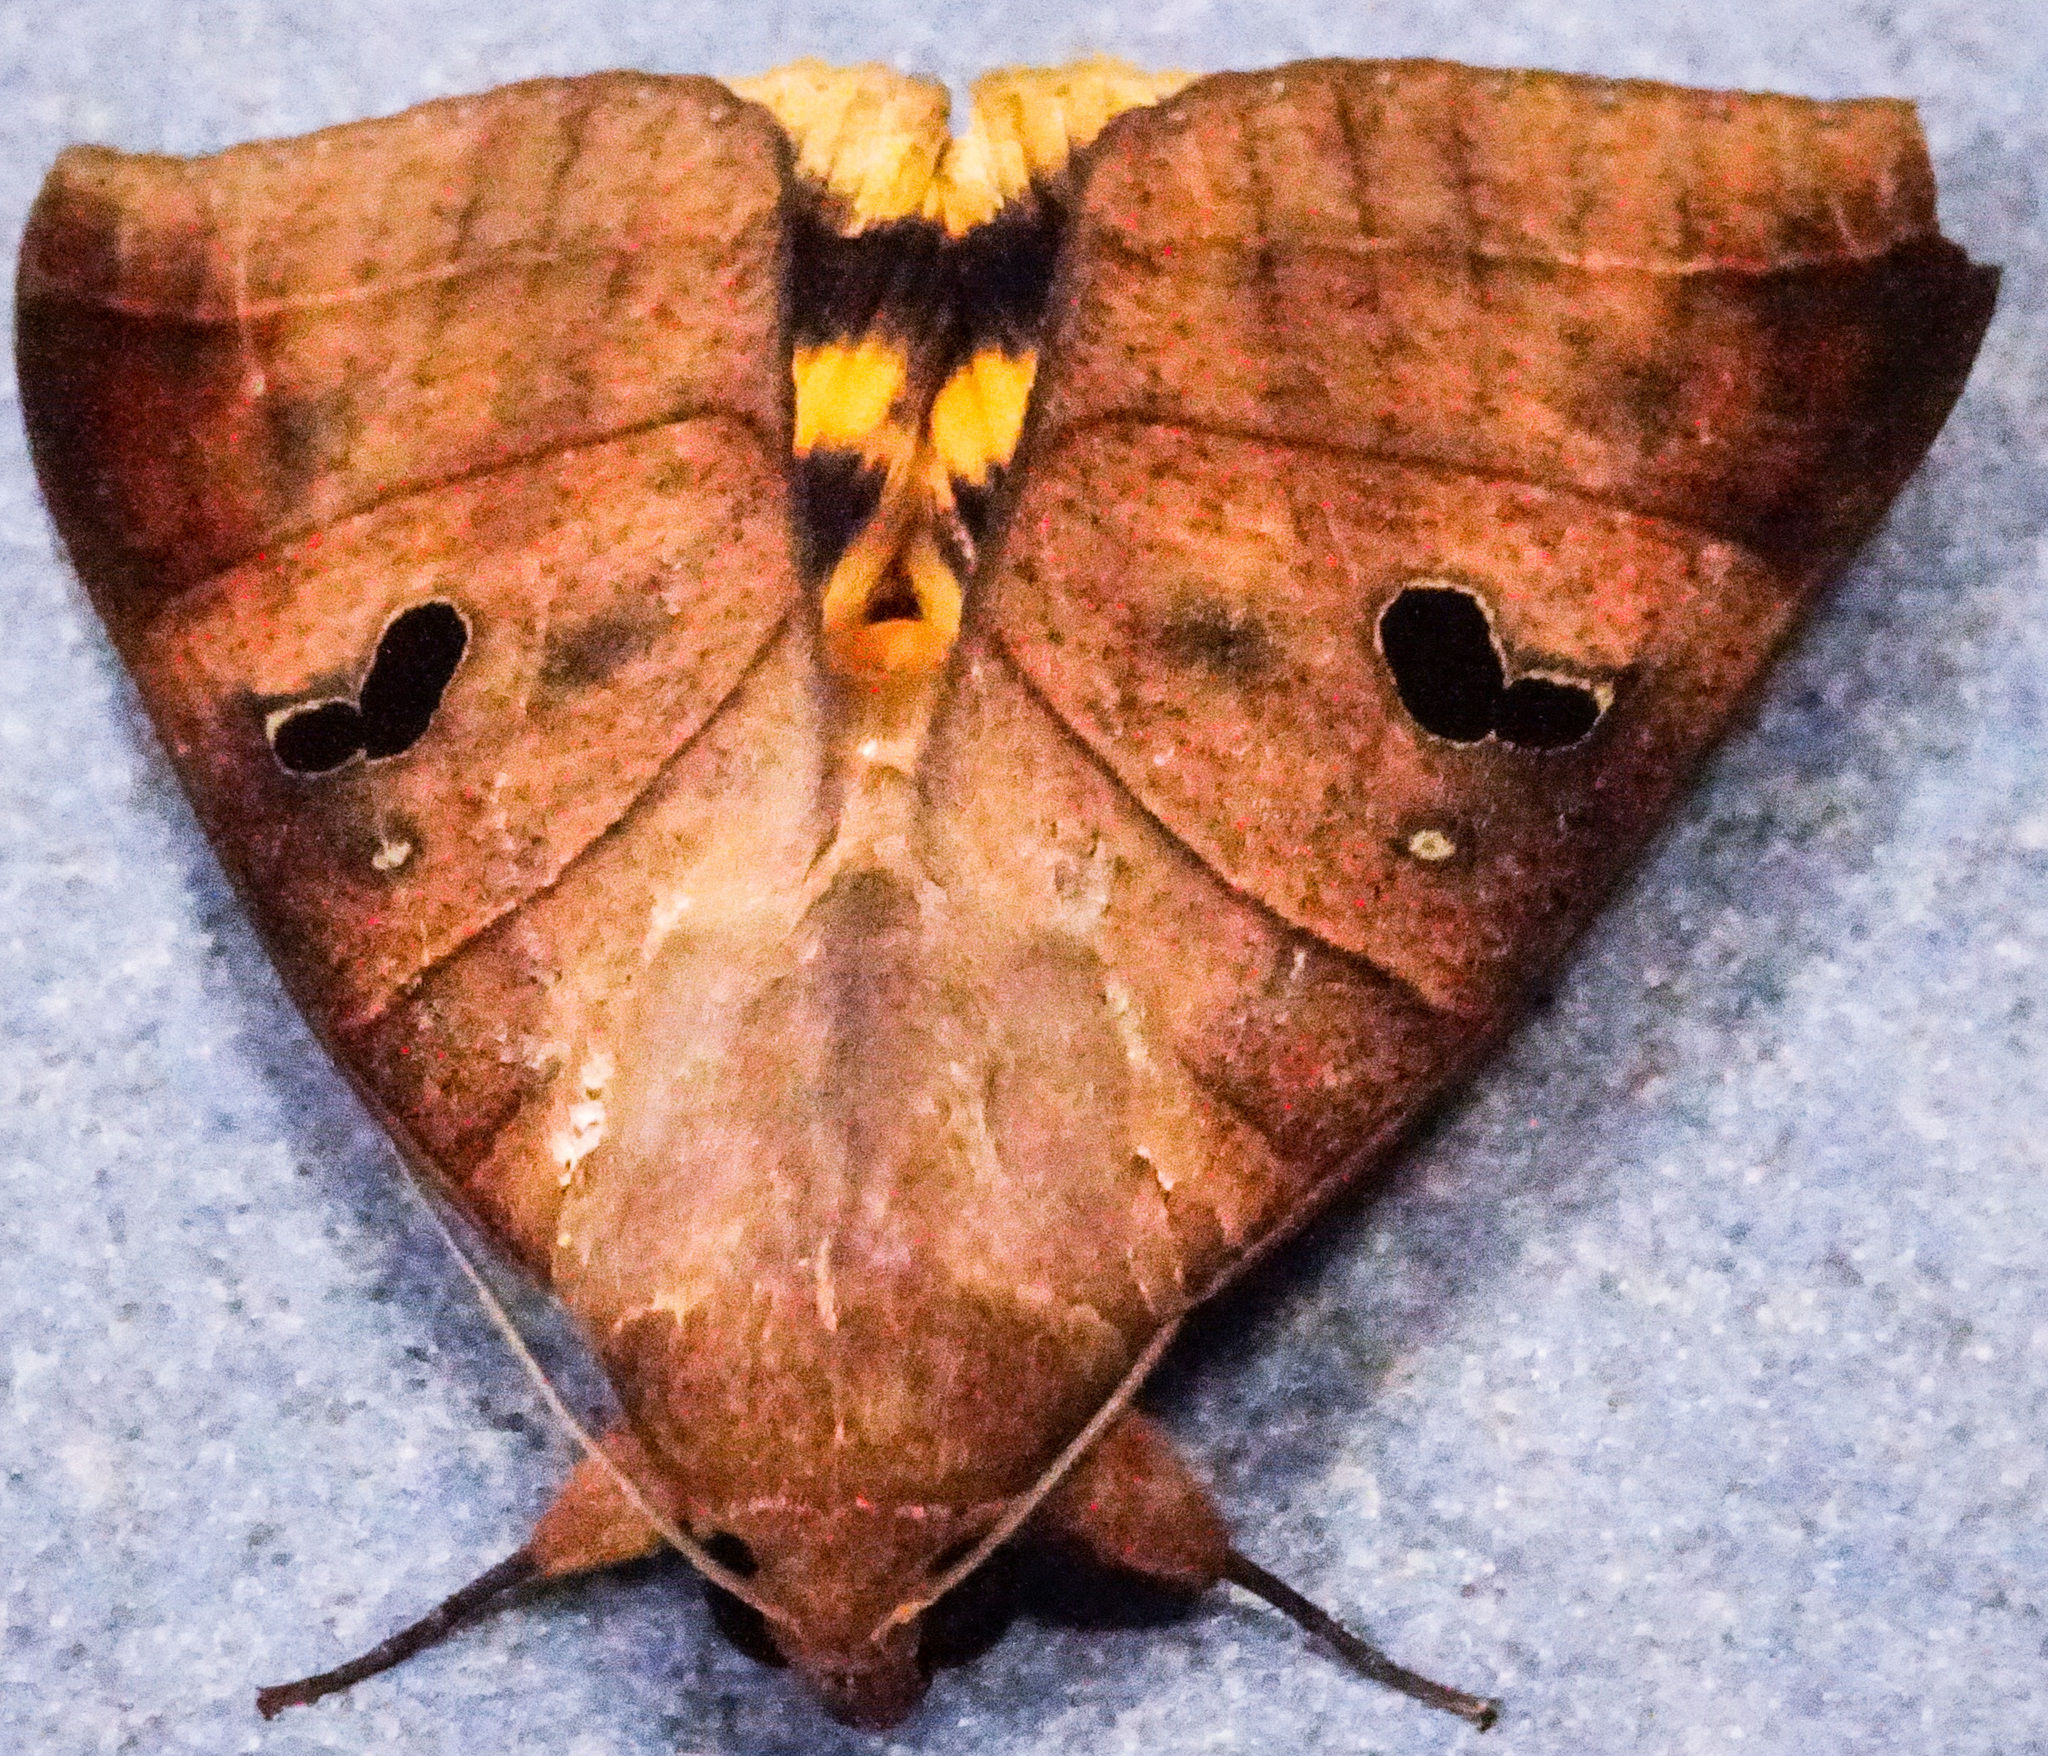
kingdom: Animalia
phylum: Arthropoda
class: Insecta
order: Lepidoptera
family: Erebidae
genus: Thyas
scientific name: Thyas coronata
